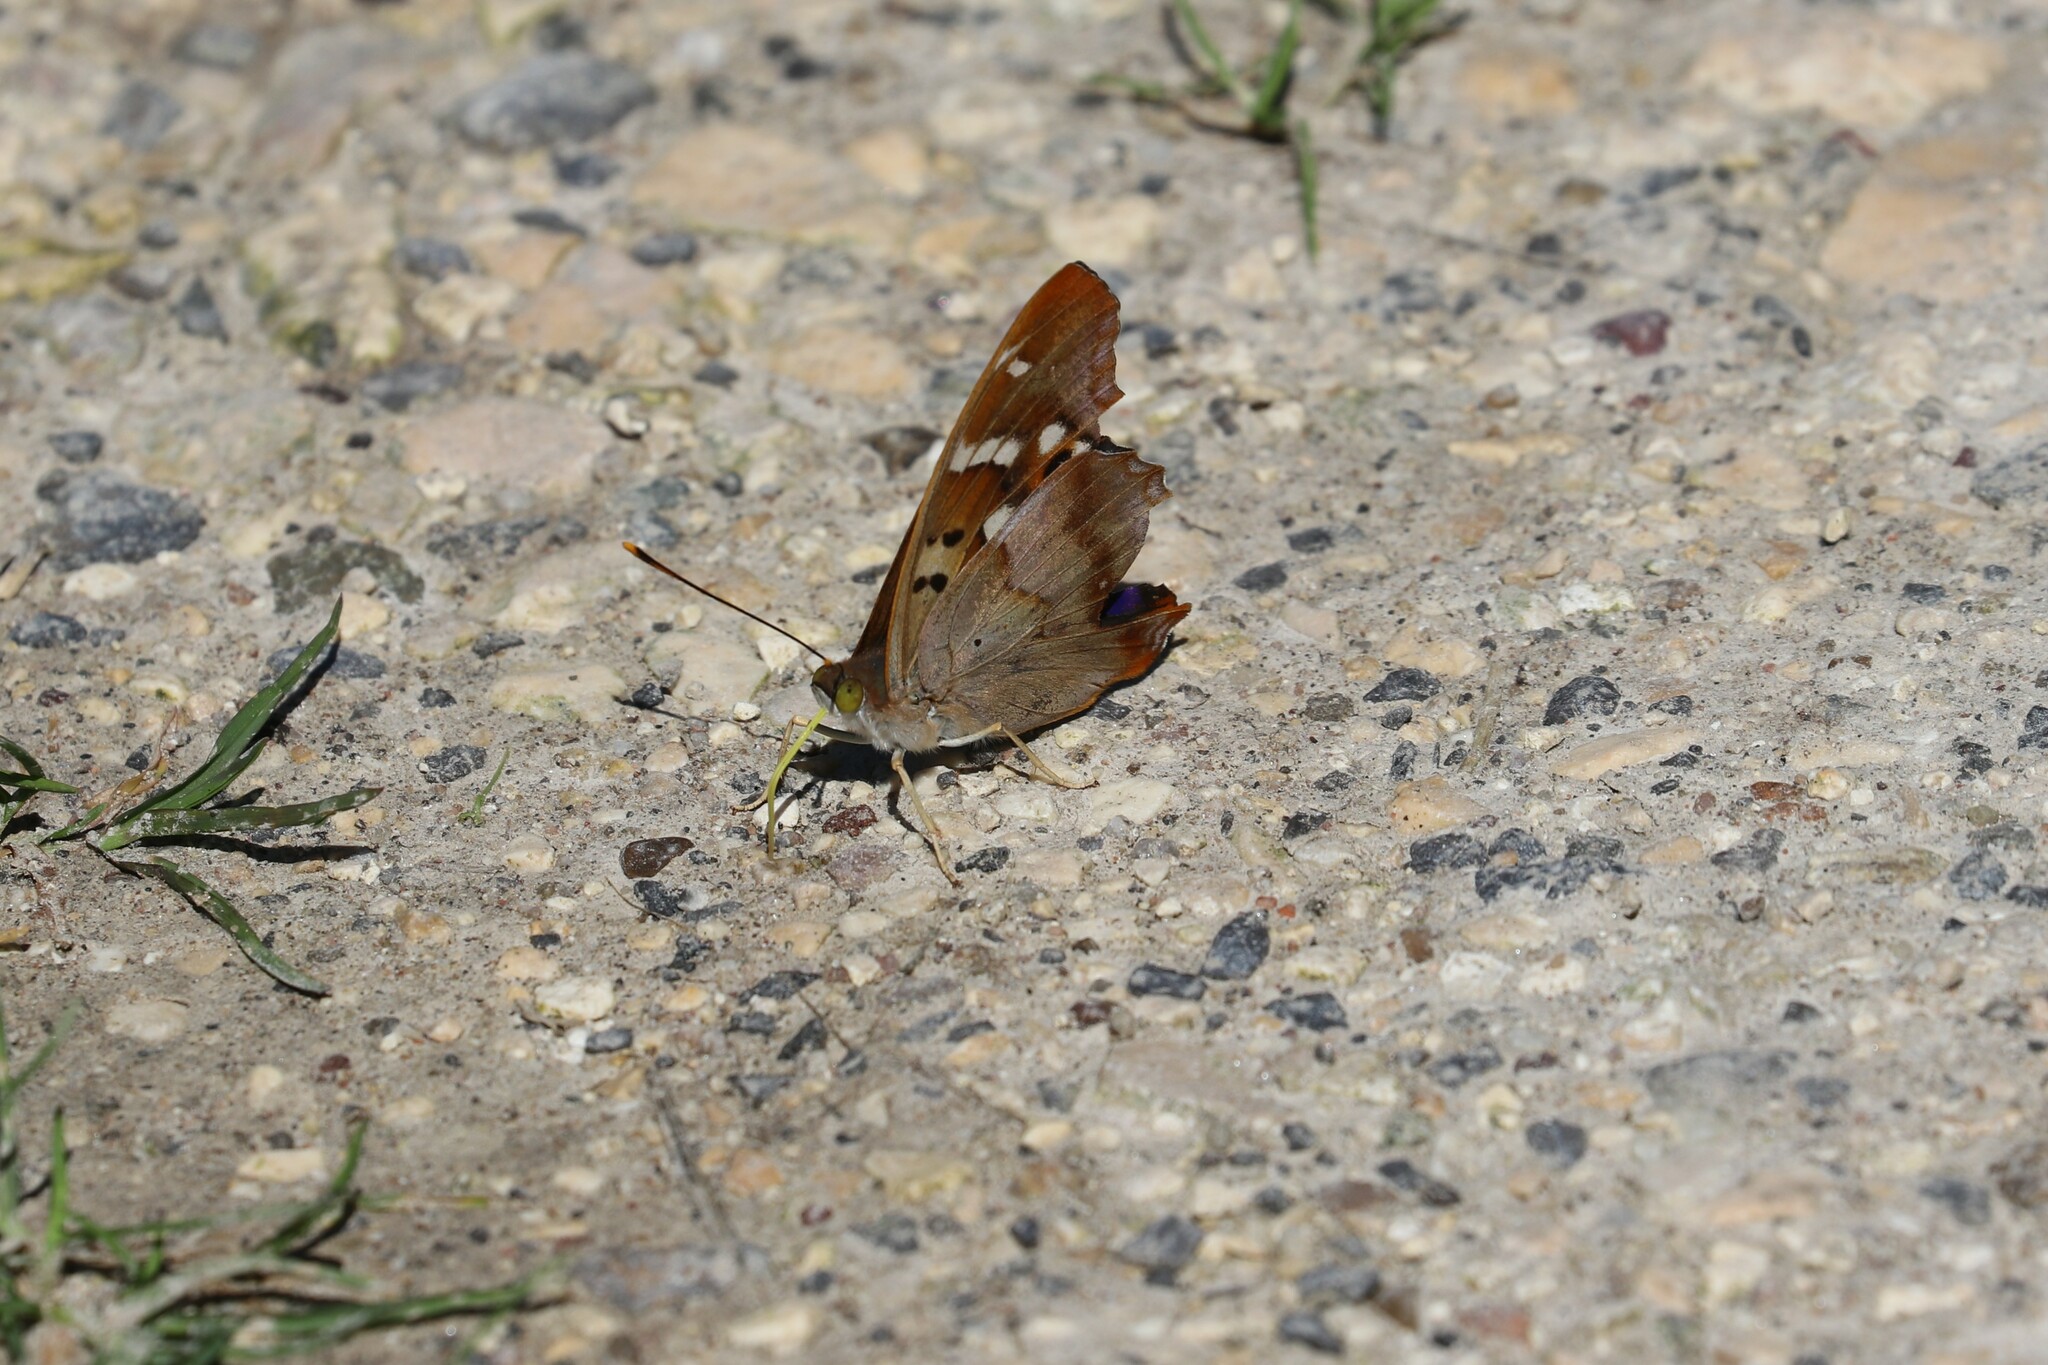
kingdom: Animalia
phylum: Arthropoda
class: Insecta
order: Lepidoptera
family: Nymphalidae
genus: Apatura
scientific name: Apatura ilia
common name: Lesser purple emperor
